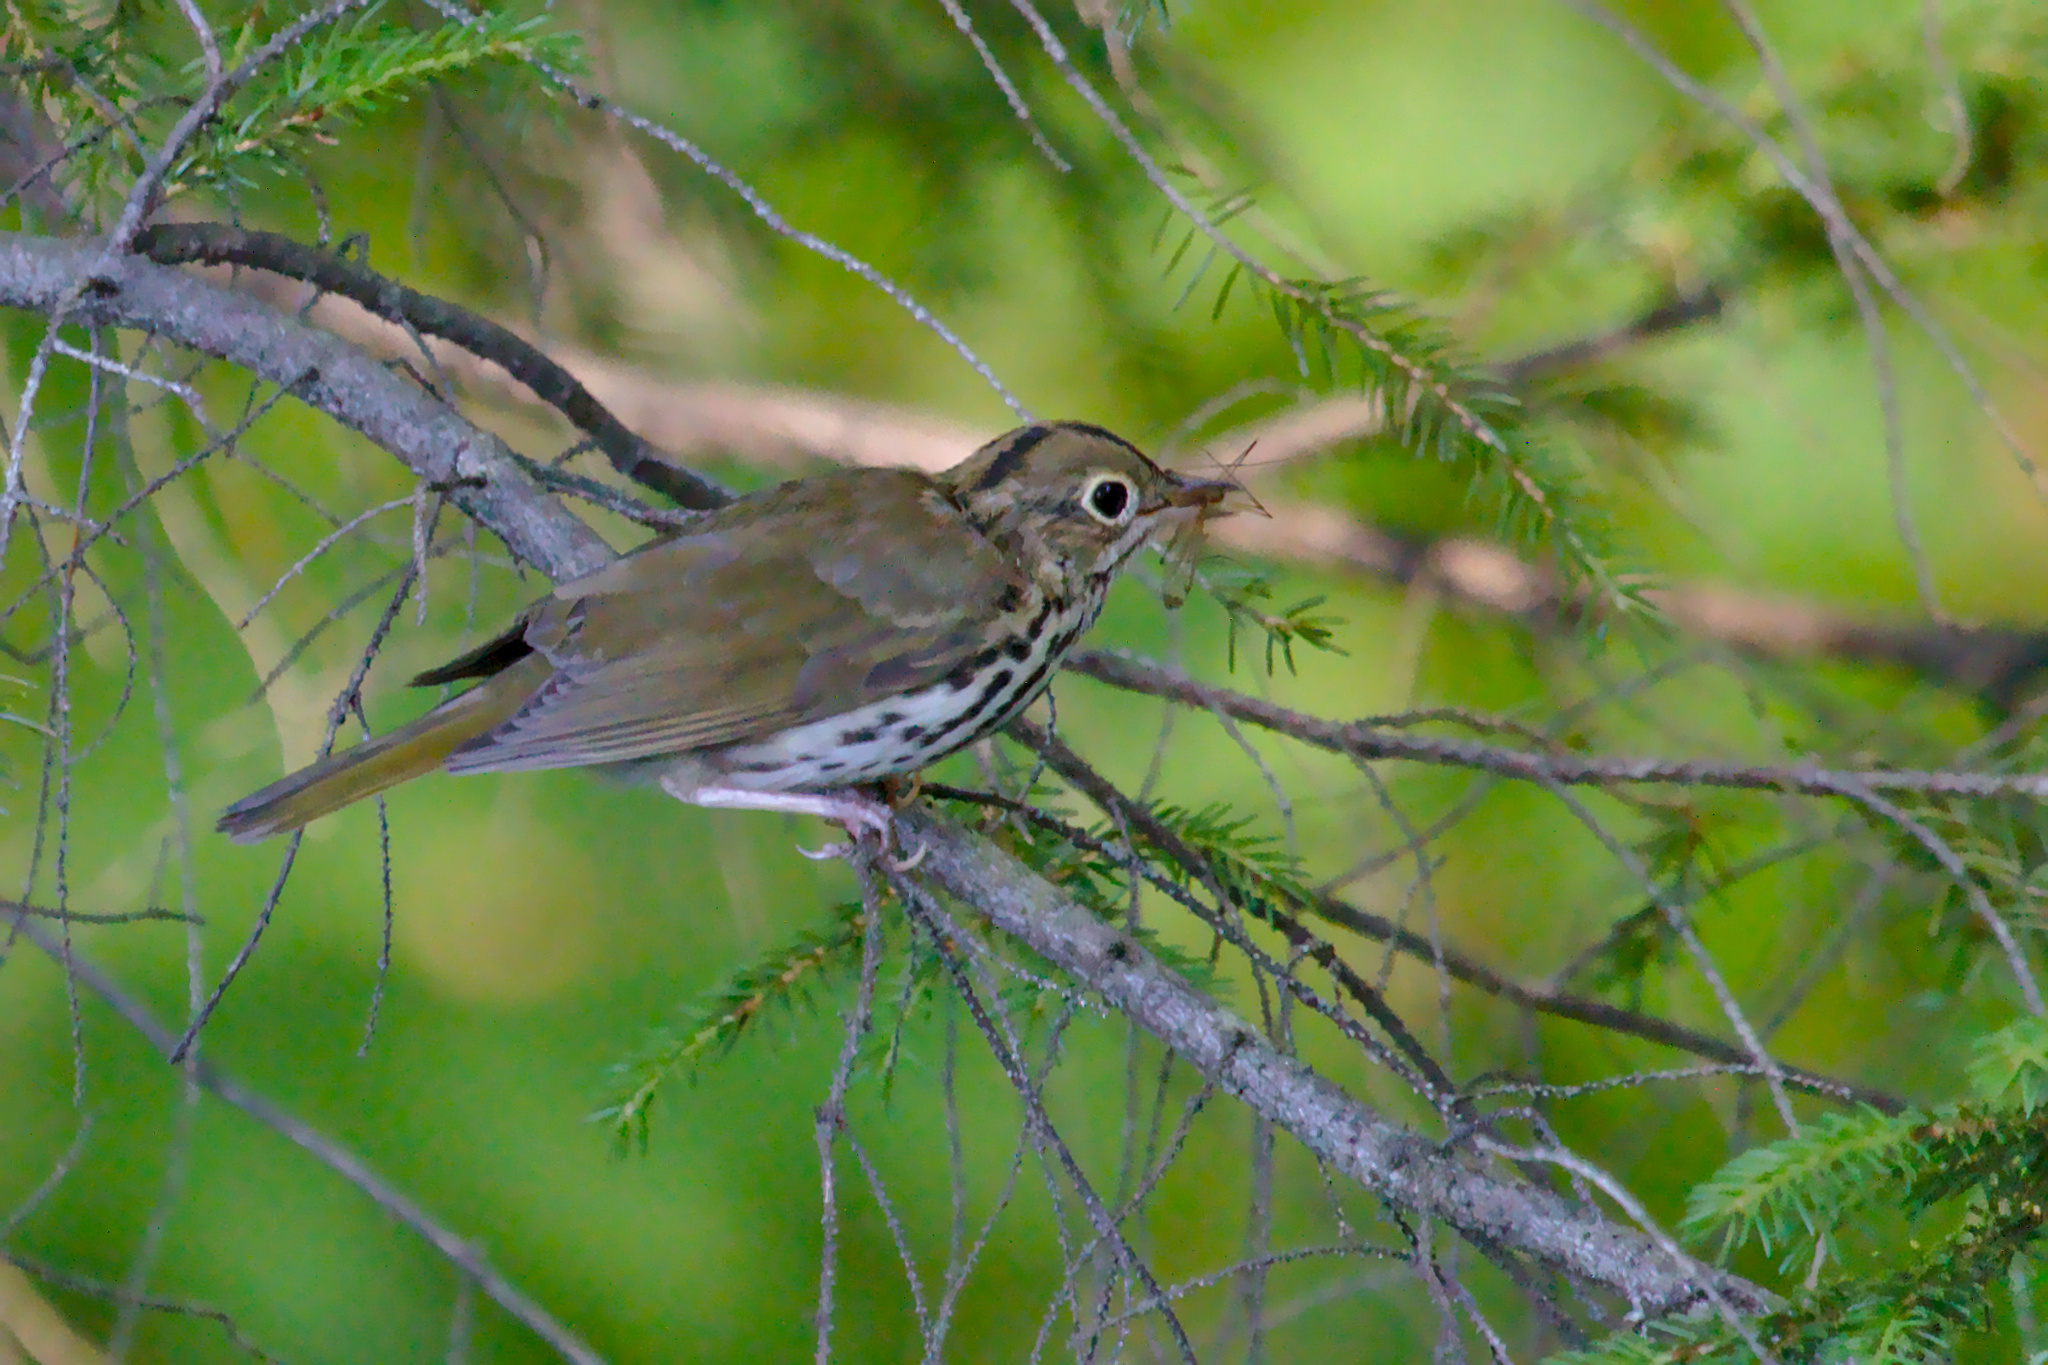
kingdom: Animalia
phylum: Chordata
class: Aves
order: Passeriformes
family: Parulidae
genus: Seiurus
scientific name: Seiurus aurocapilla
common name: Ovenbird
